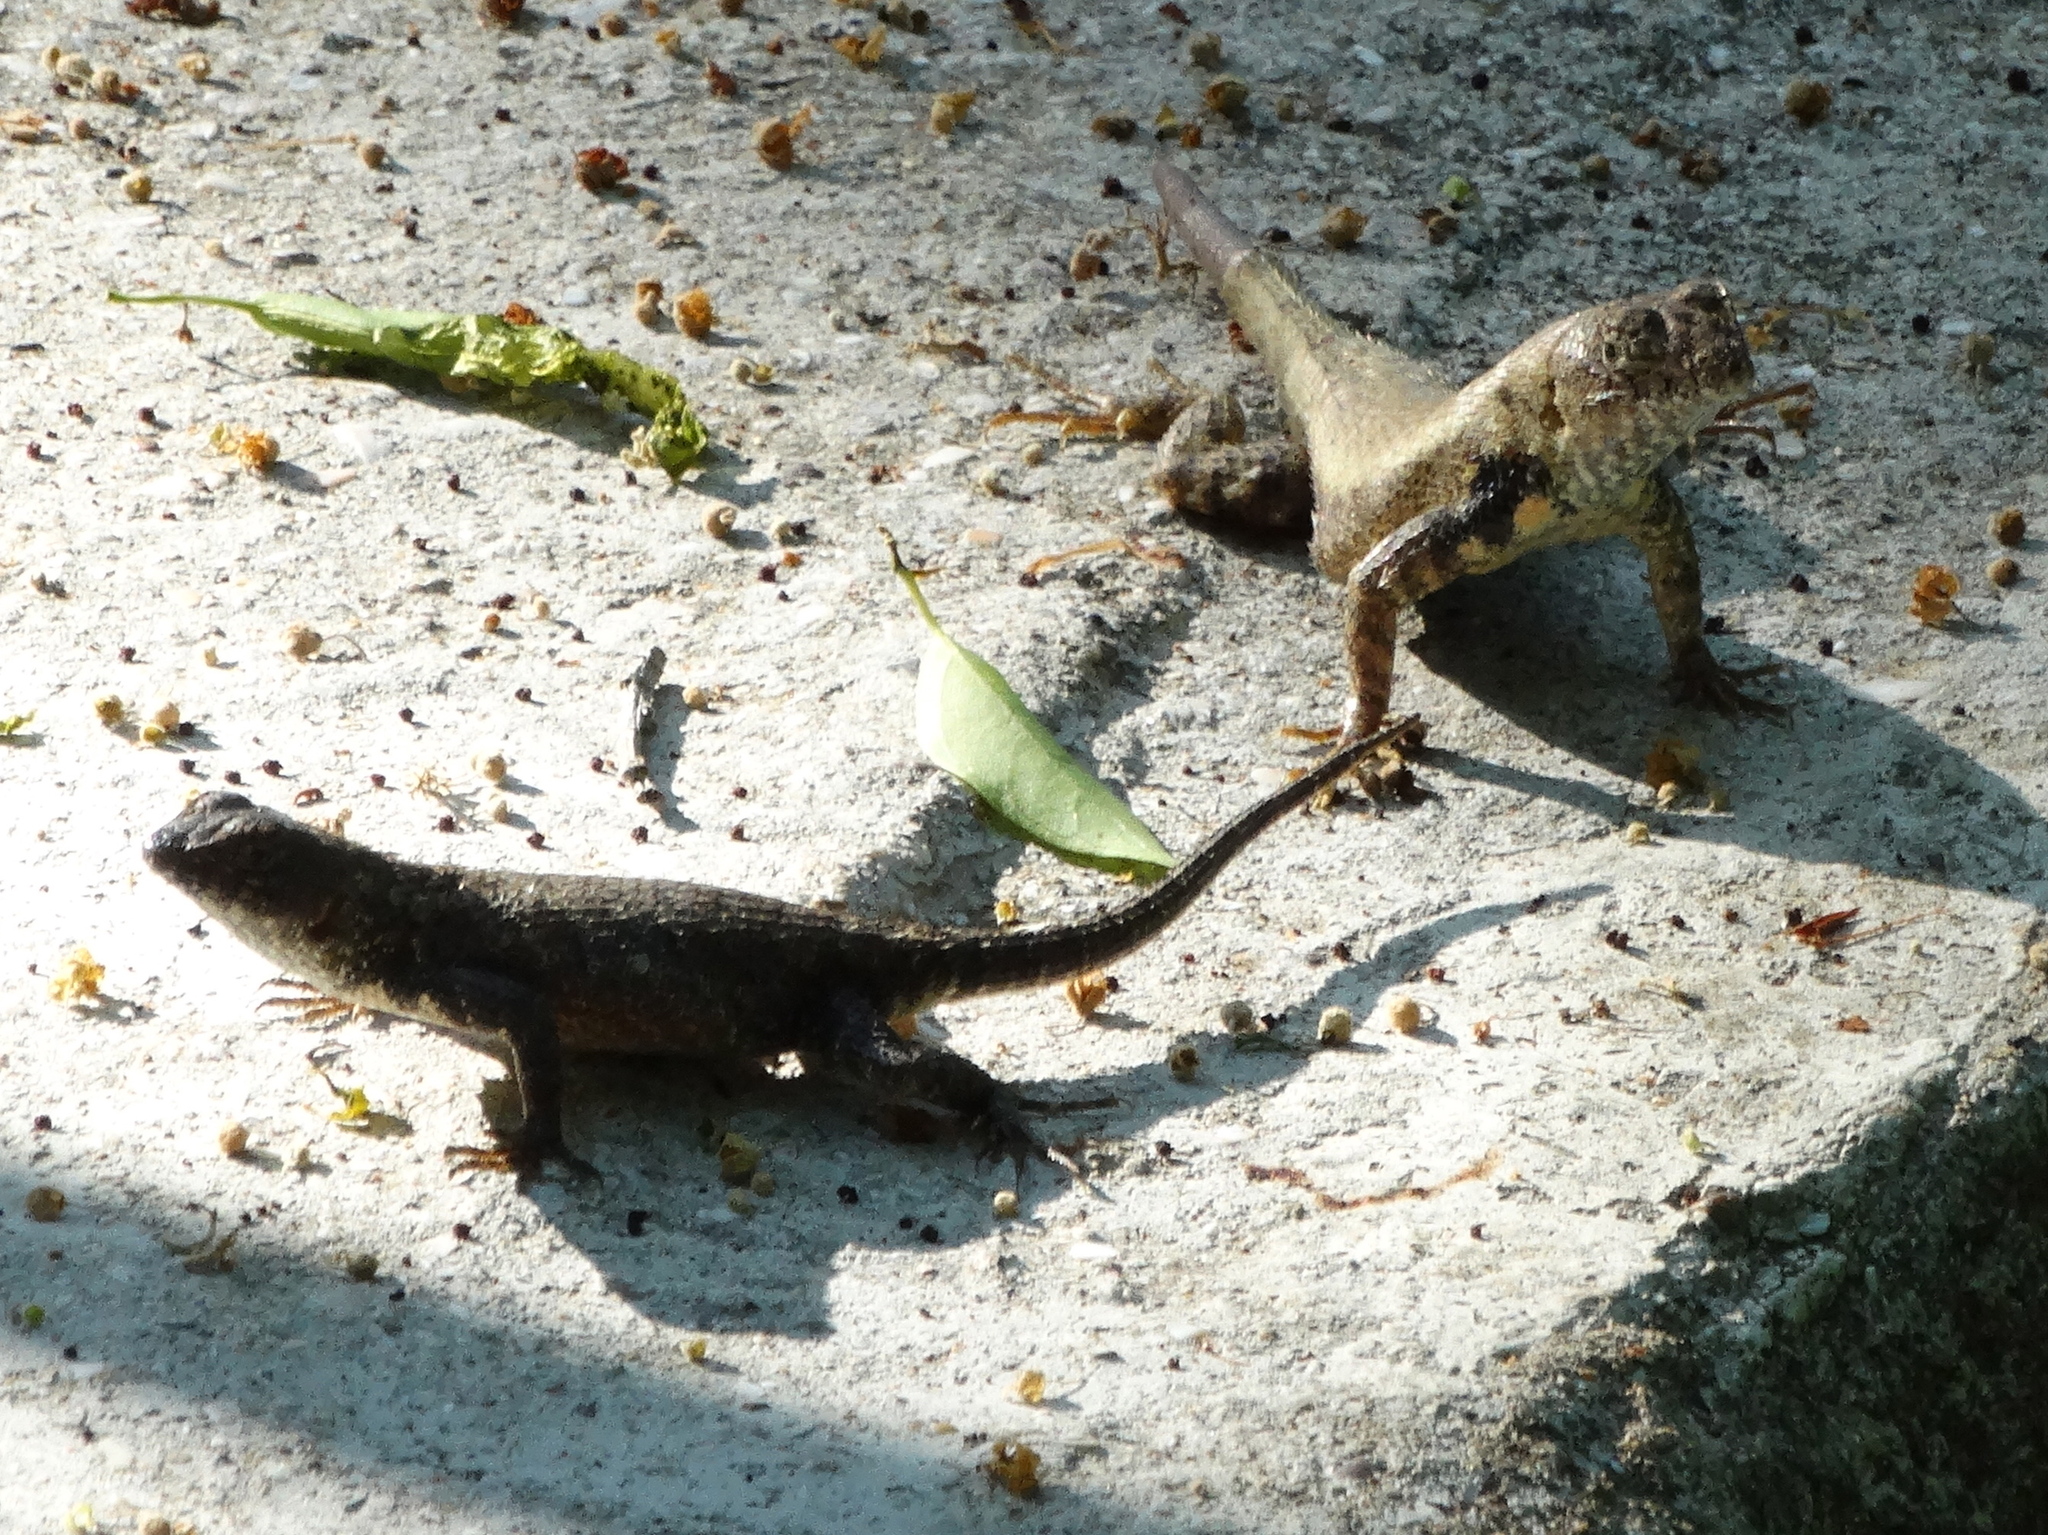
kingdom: Animalia
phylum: Chordata
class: Squamata
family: Phrynosomatidae
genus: Sceloporus
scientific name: Sceloporus nelsoni
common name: Nelson's spiny lizard
